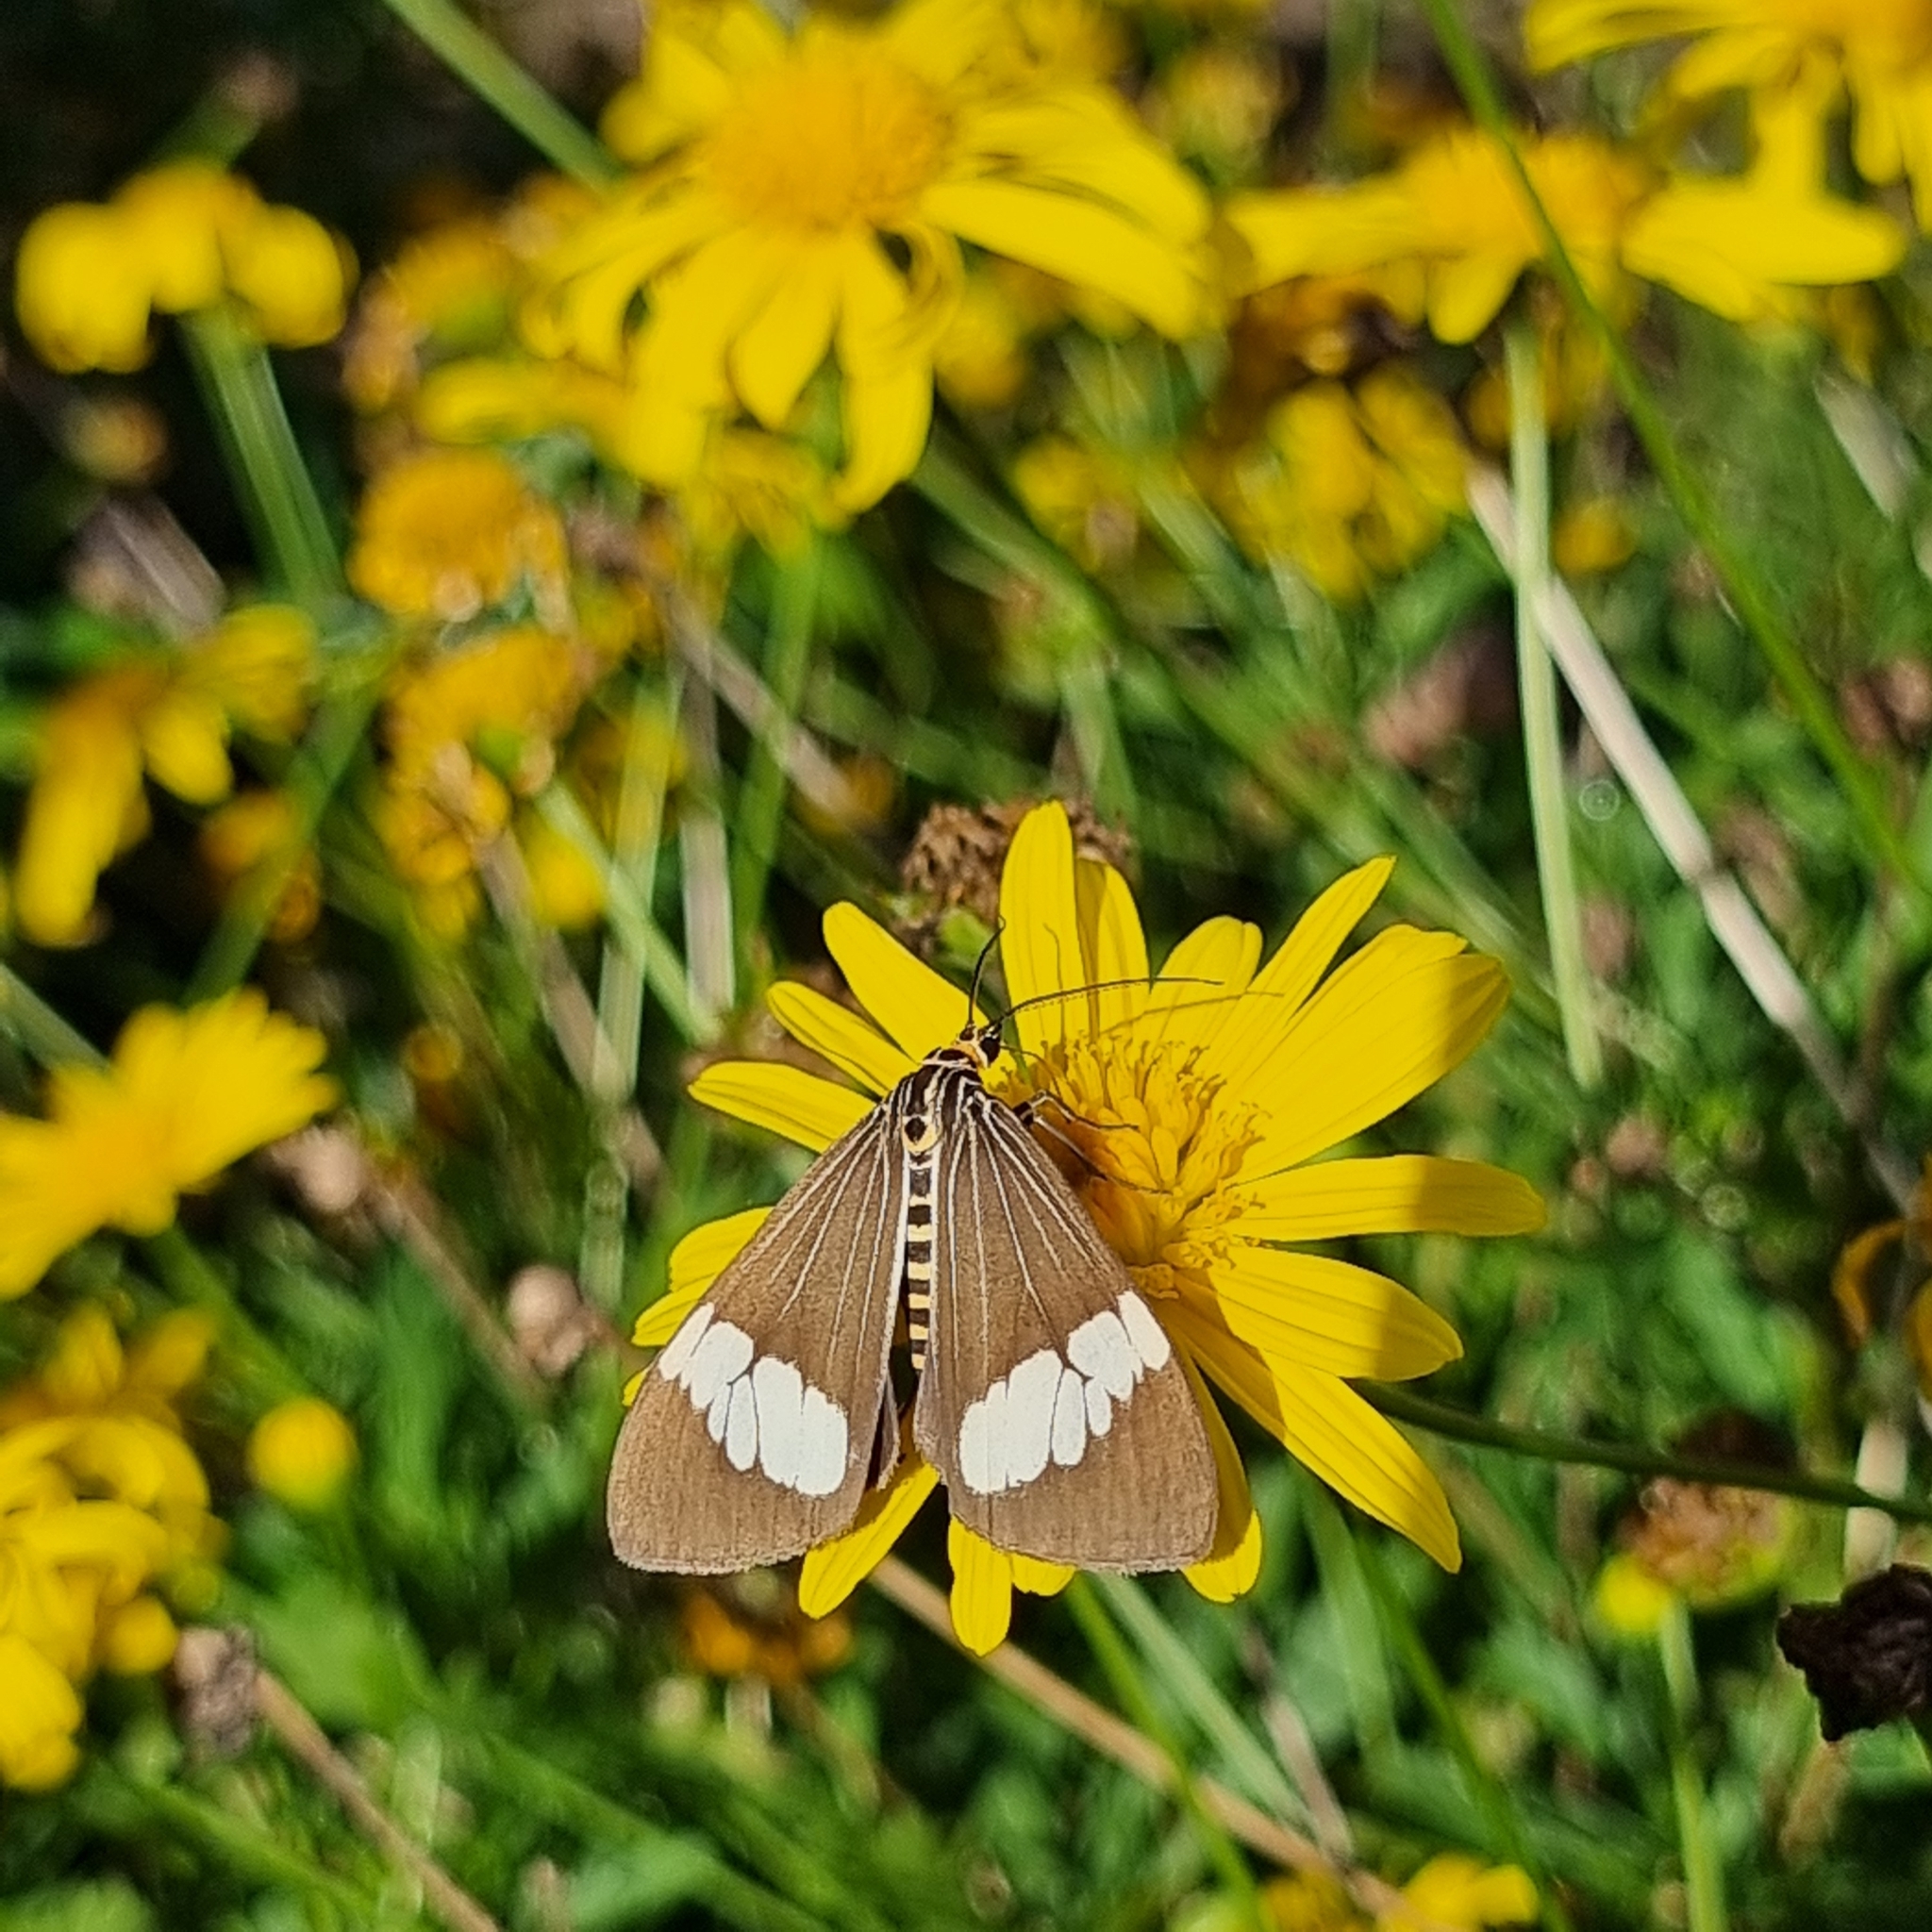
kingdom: Animalia
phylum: Arthropoda
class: Insecta
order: Lepidoptera
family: Erebidae
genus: Nyctemera
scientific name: Nyctemera baulus
